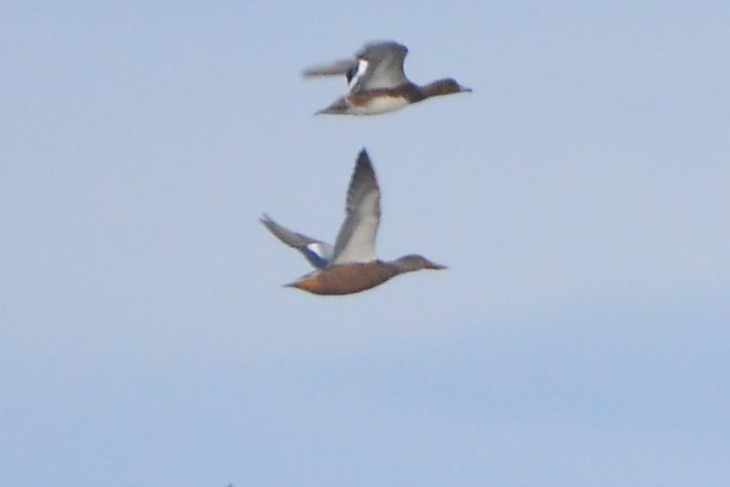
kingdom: Animalia
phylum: Chordata
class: Aves
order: Anseriformes
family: Anatidae
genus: Mareca
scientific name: Mareca penelope
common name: Eurasian wigeon
